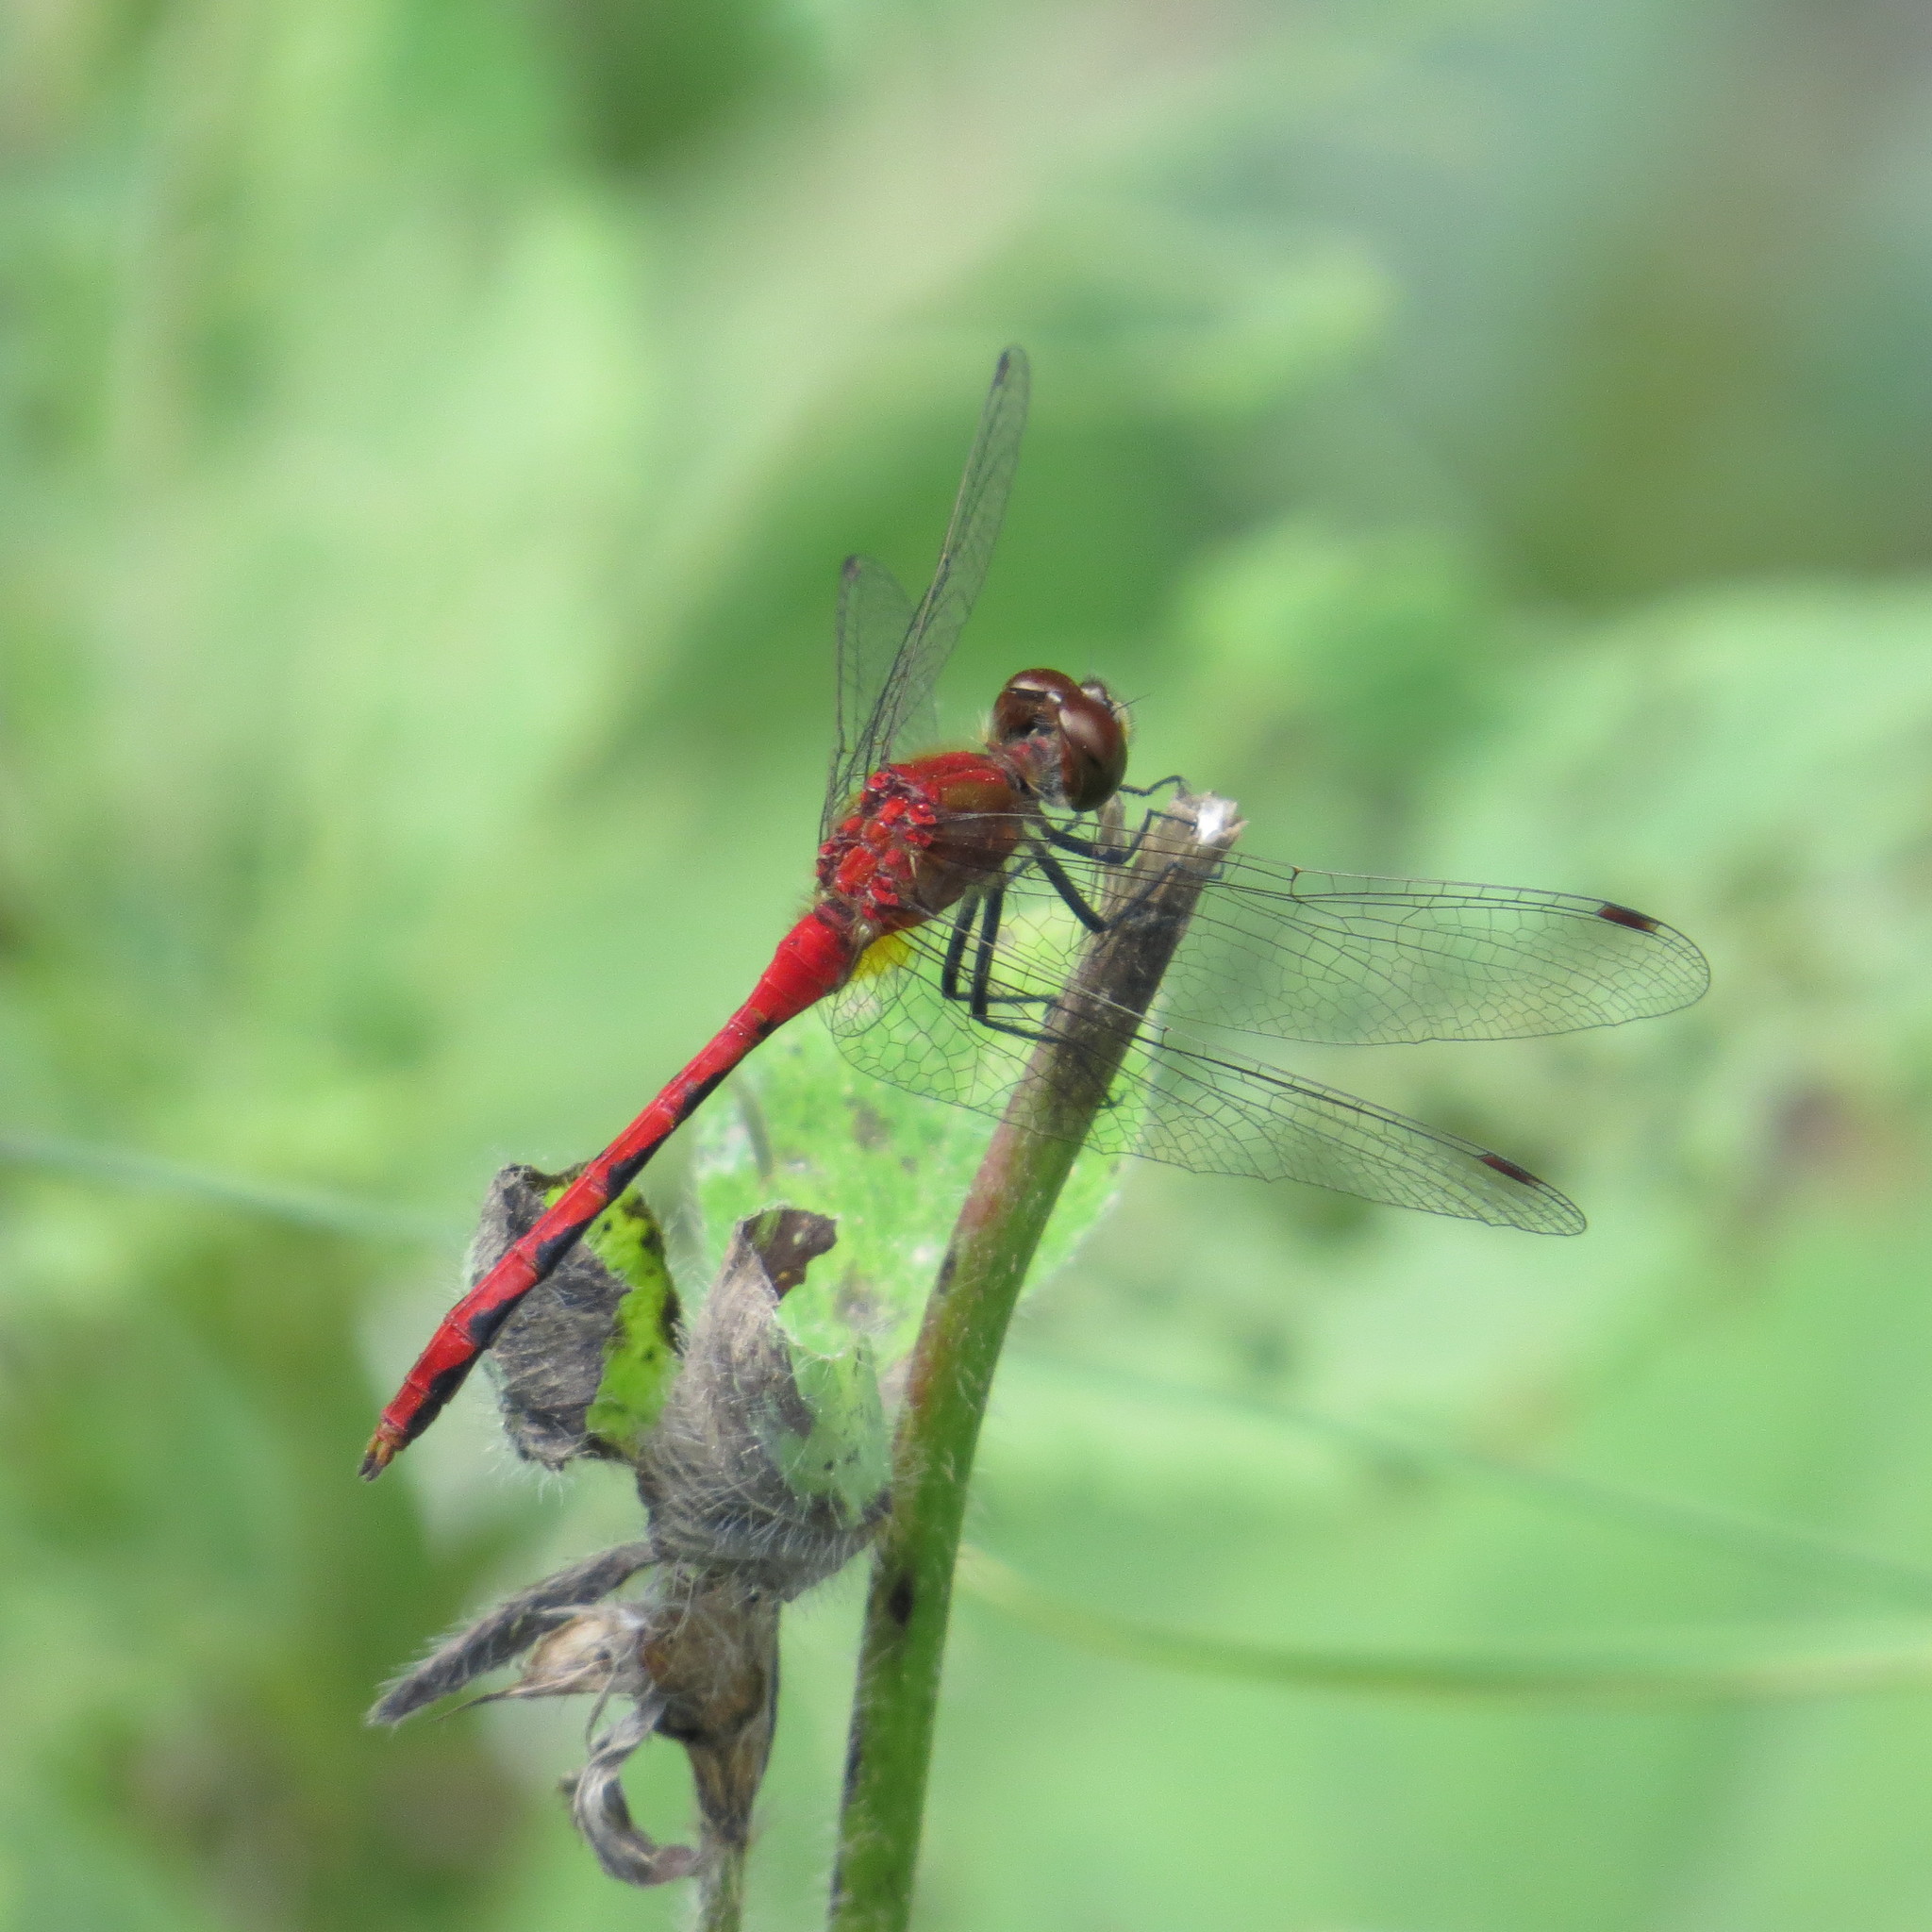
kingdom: Animalia
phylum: Arthropoda
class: Insecta
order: Odonata
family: Libellulidae
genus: Sympetrum
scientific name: Sympetrum obtrusum
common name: White-faced meadowhawk
